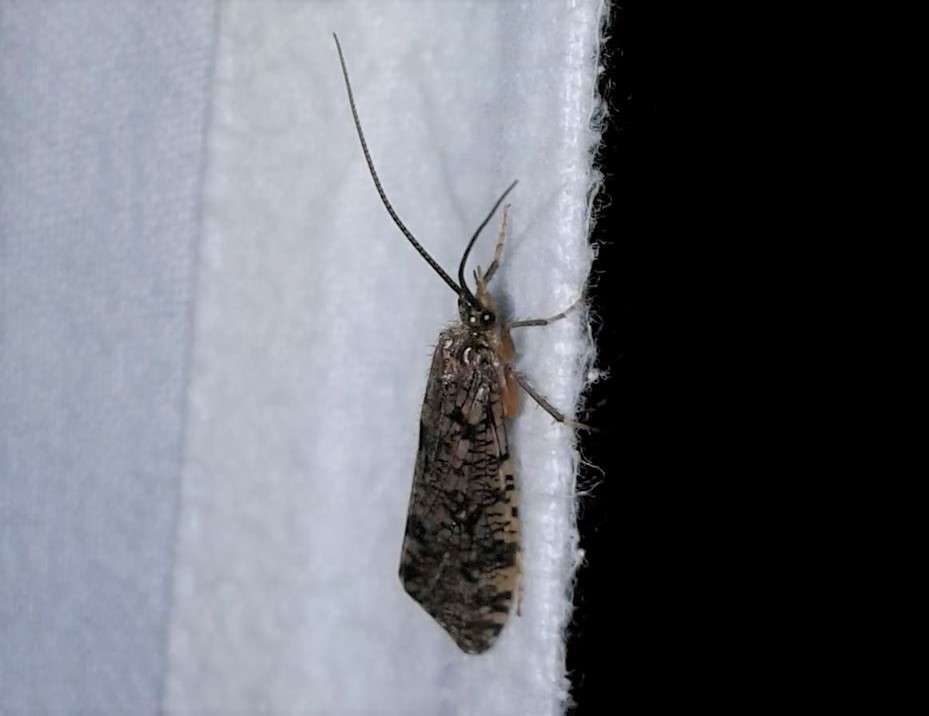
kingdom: Animalia
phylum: Arthropoda
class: Insecta
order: Trichoptera
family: Phryganeidae
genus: Banksiola
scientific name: Banksiola crotchi
